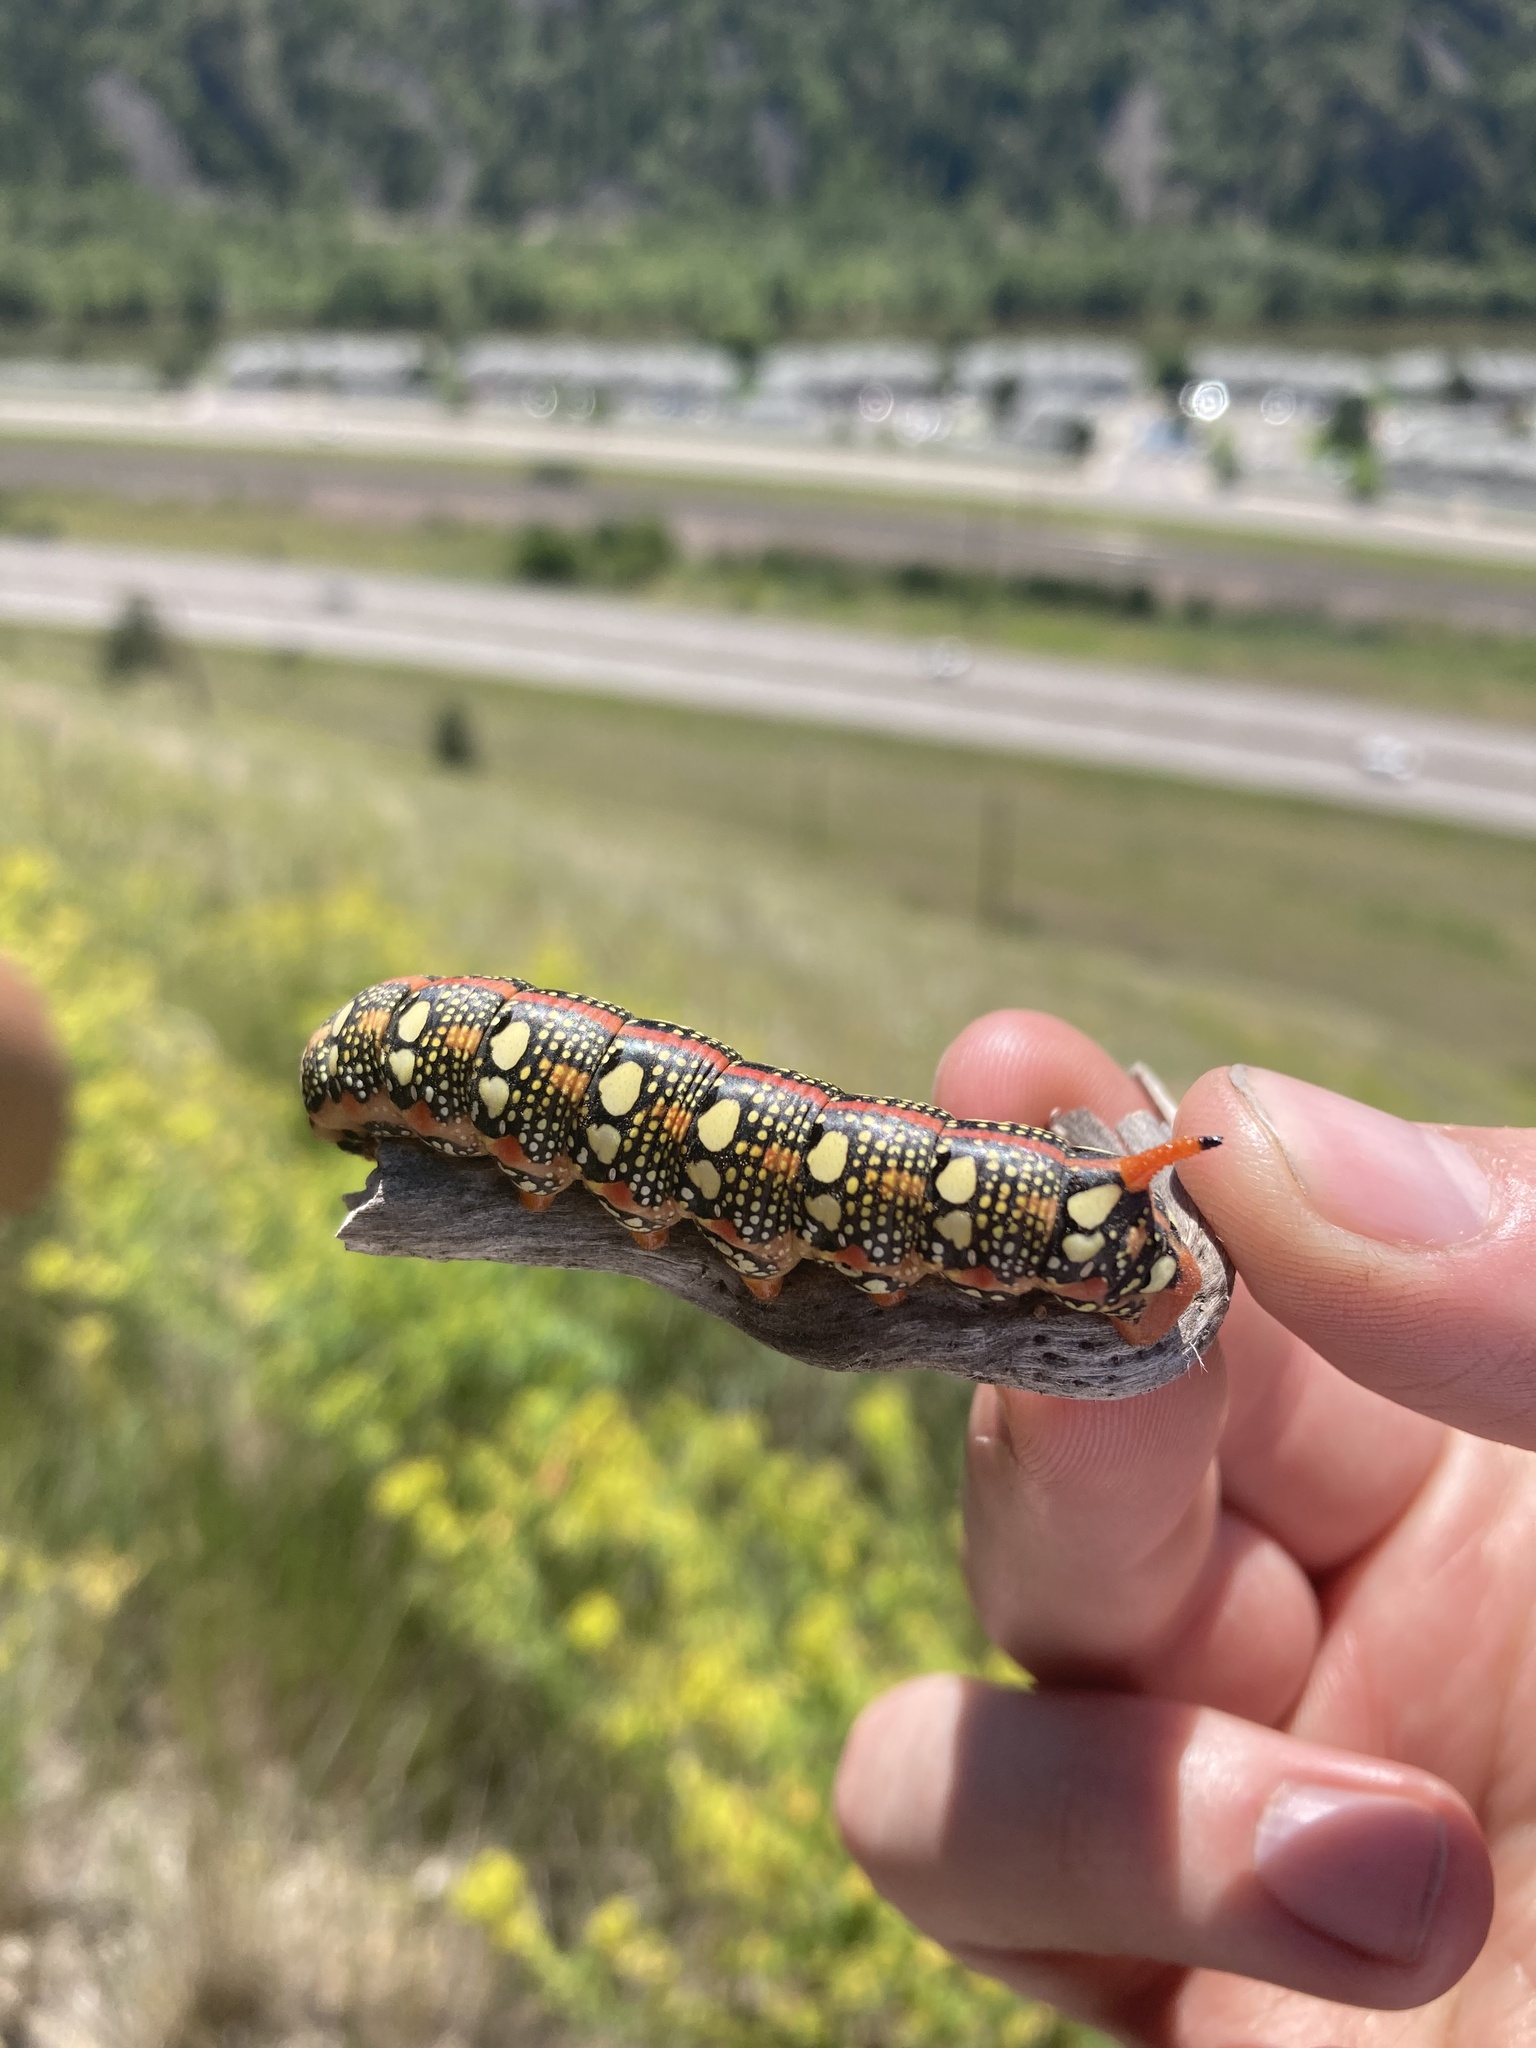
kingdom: Animalia
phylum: Arthropoda
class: Insecta
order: Lepidoptera
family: Sphingidae
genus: Hyles
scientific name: Hyles euphorbiae
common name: Spurge hawk-moth
